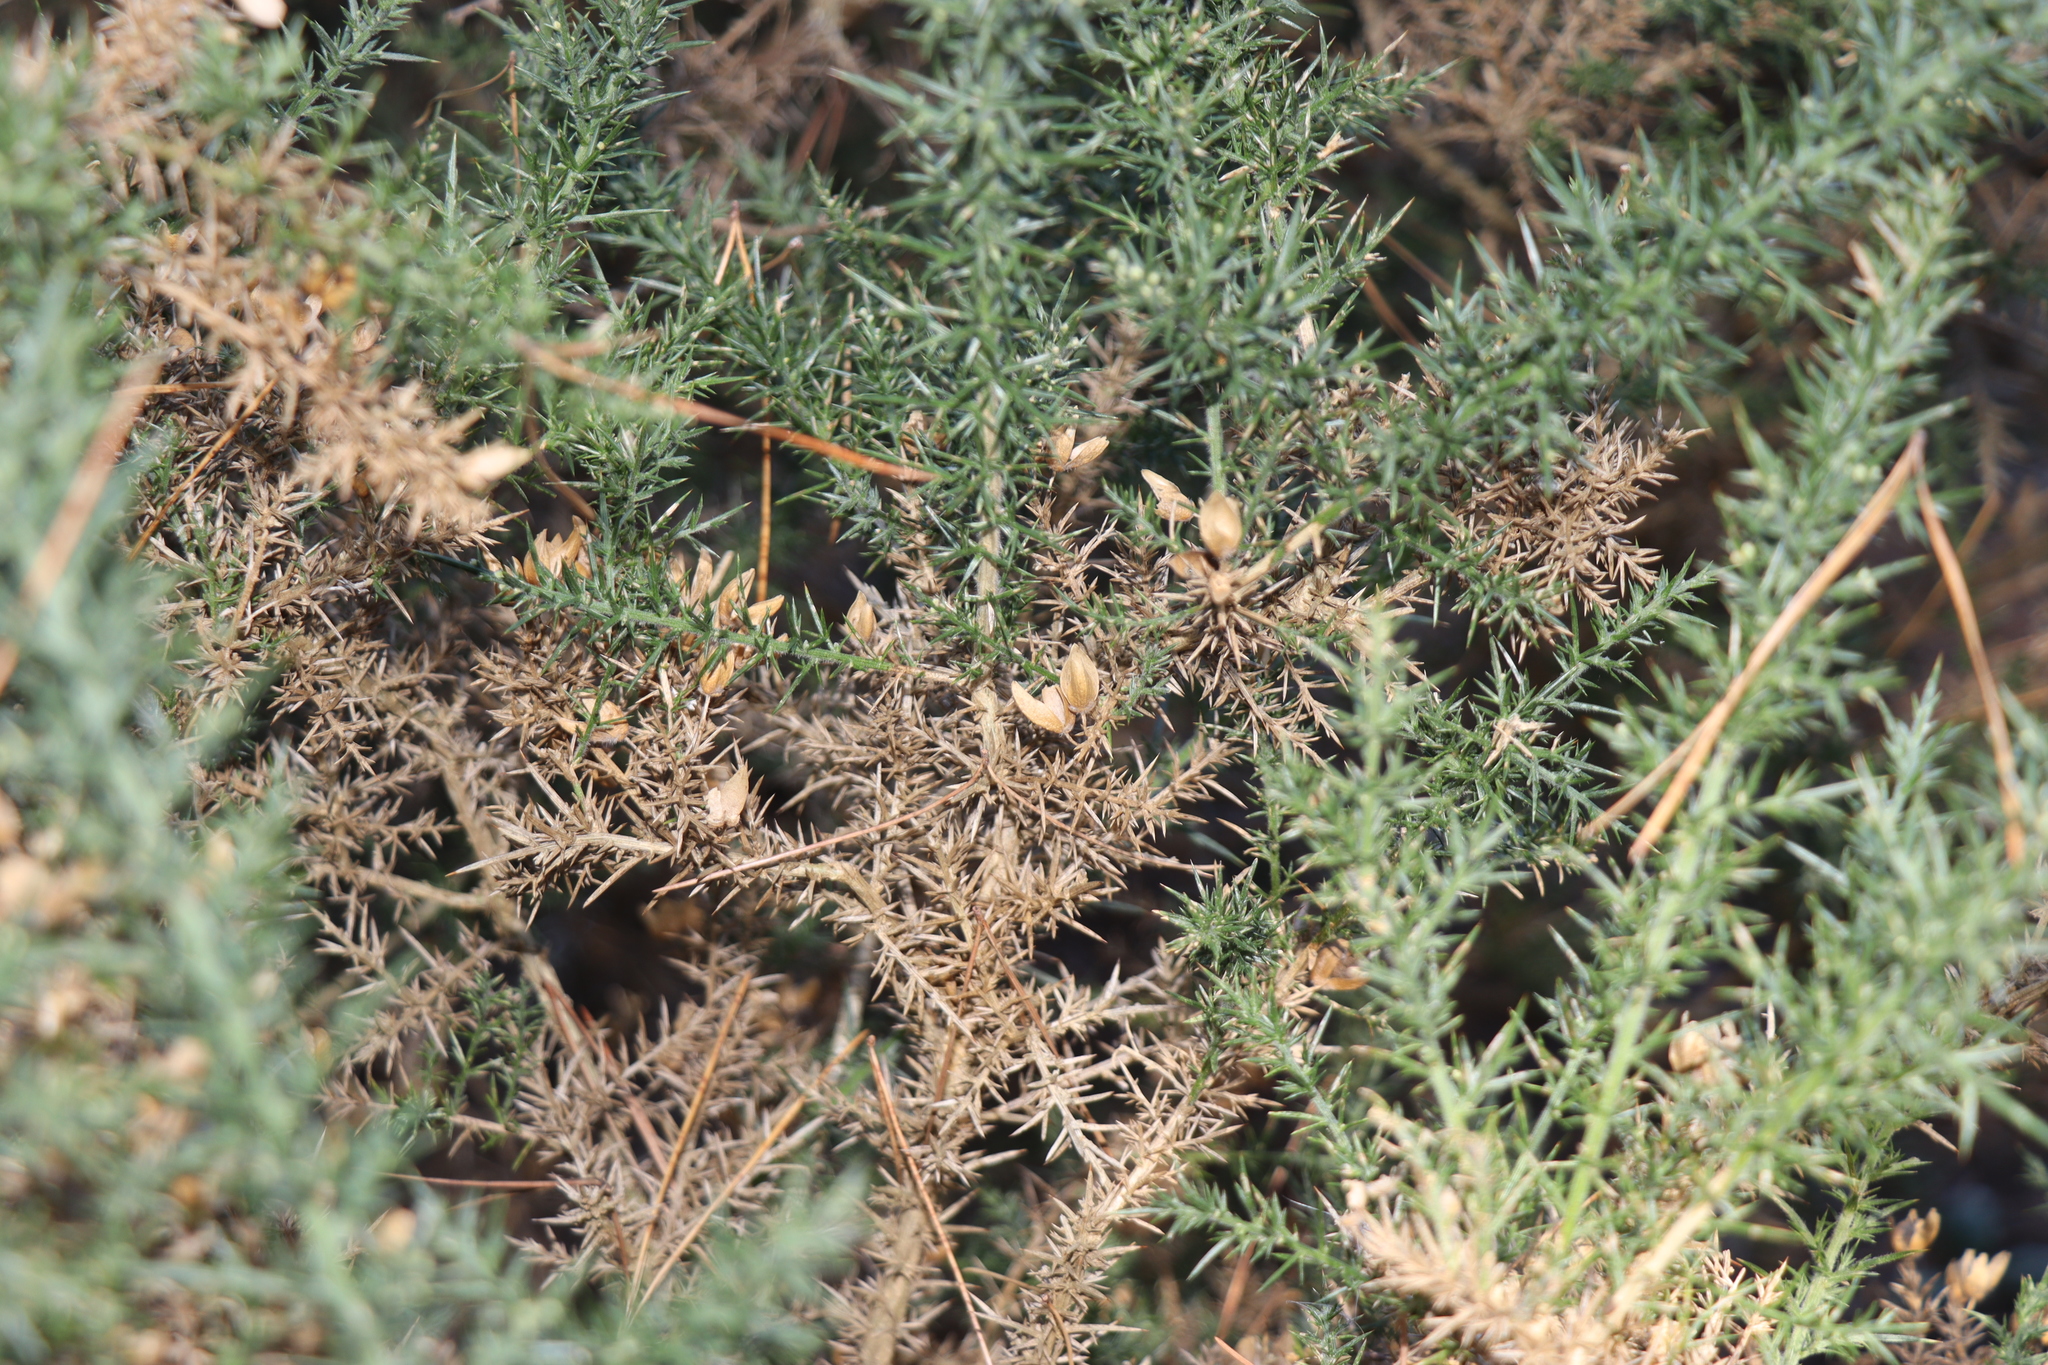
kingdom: Plantae
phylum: Tracheophyta
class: Magnoliopsida
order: Fabales
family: Fabaceae
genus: Ulex
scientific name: Ulex europaeus
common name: Common gorse
